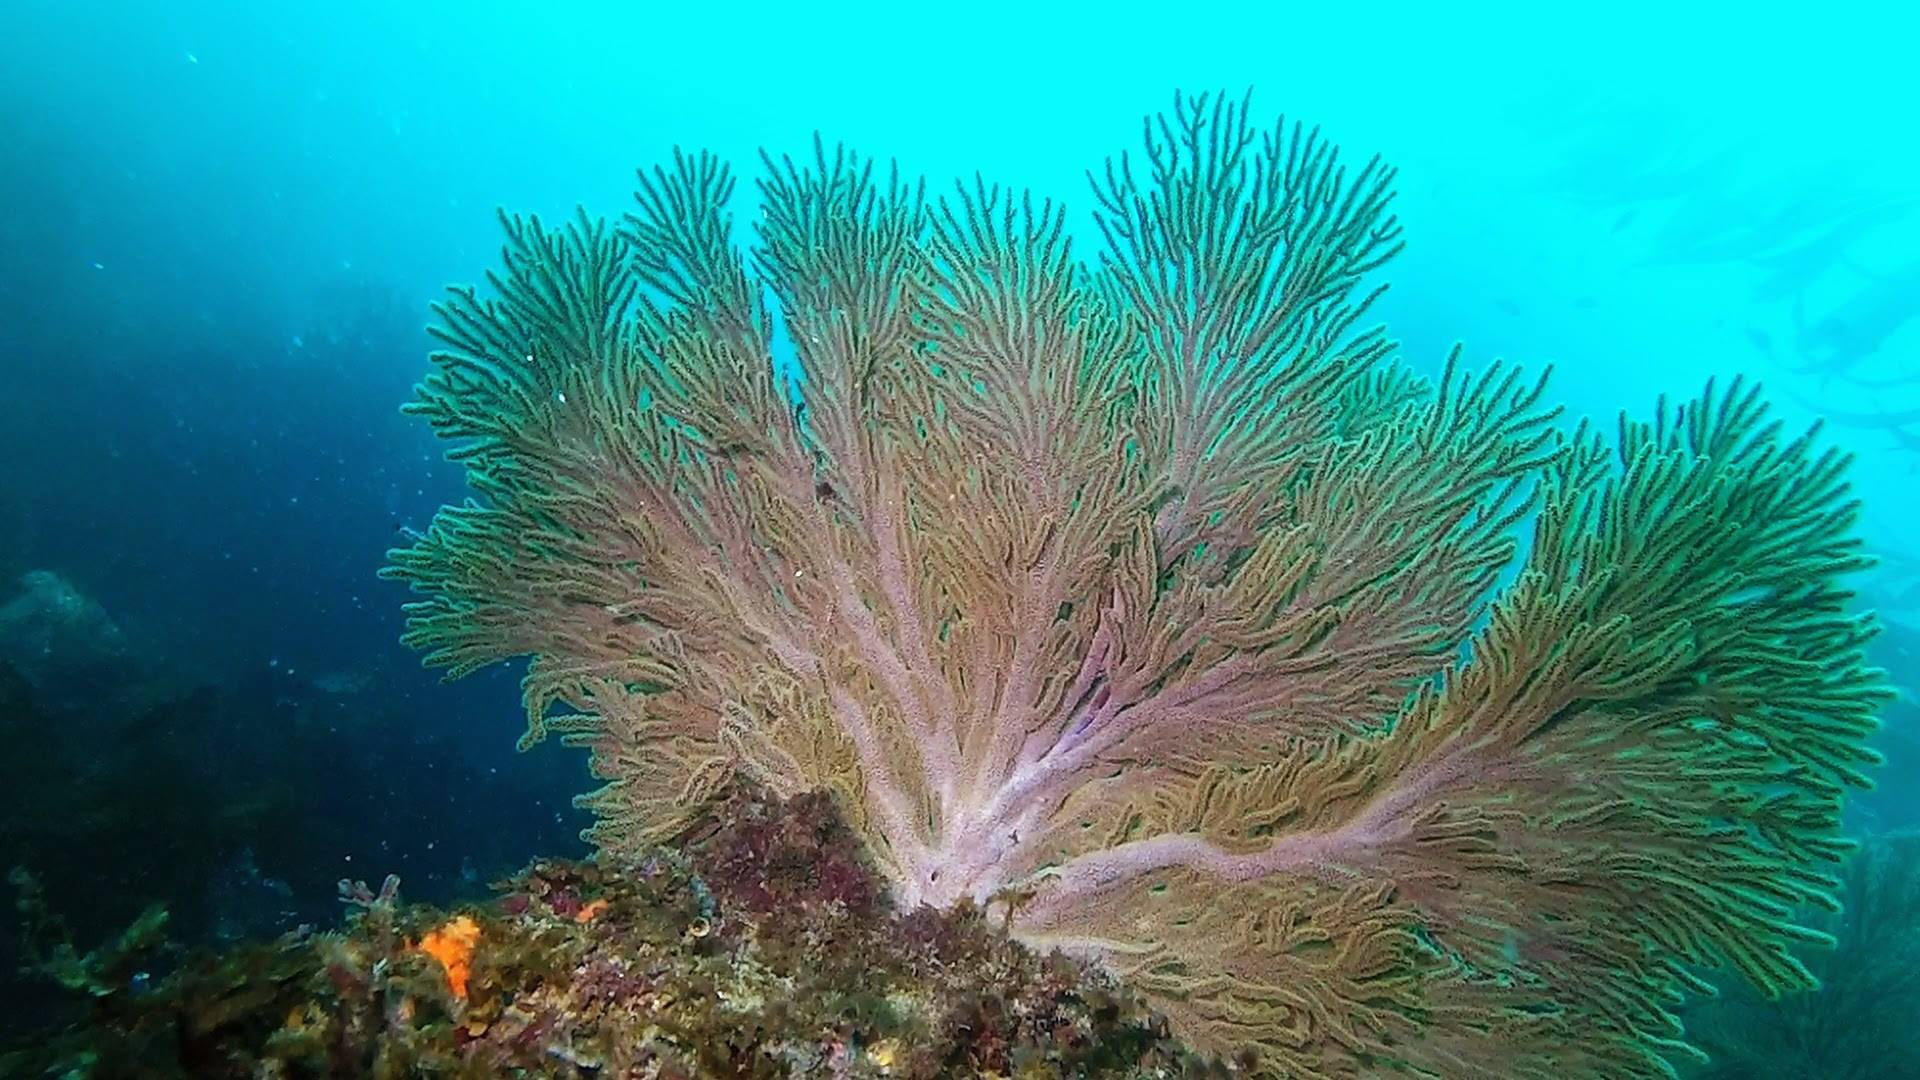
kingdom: Animalia
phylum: Cnidaria
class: Anthozoa
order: Malacalcyonacea
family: Plexauridae
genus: Muricea
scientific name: Muricea californica
